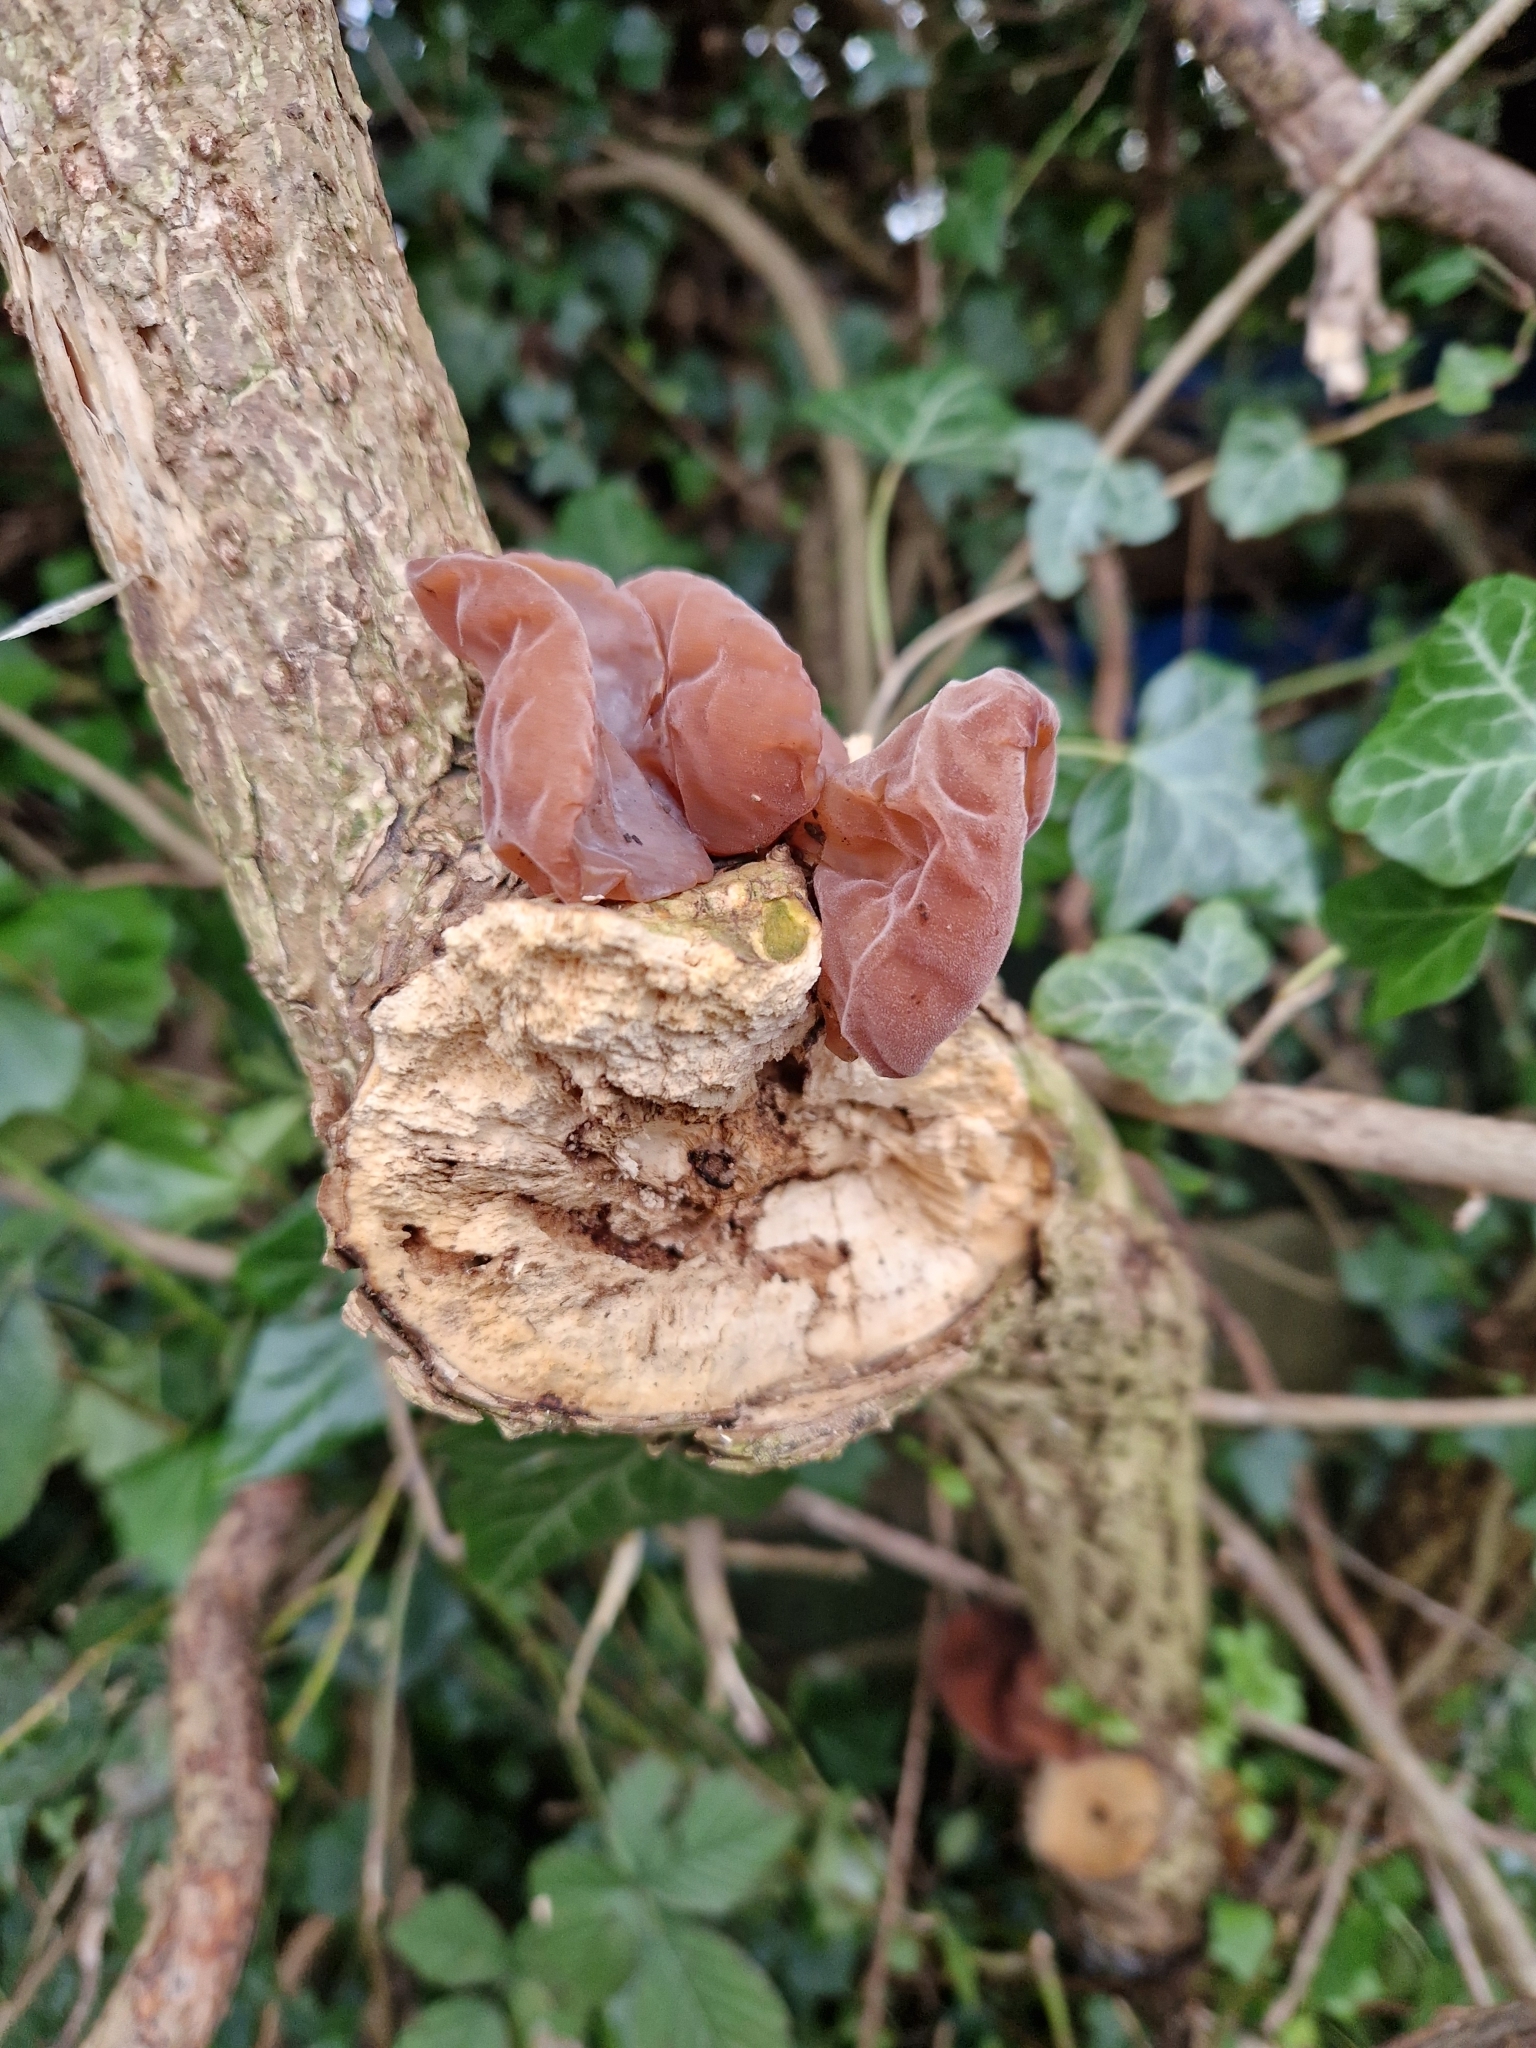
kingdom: Fungi
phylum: Basidiomycota
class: Agaricomycetes
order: Auriculariales
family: Auriculariaceae
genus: Auricularia
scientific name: Auricularia auricula-judae
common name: Jelly ear
